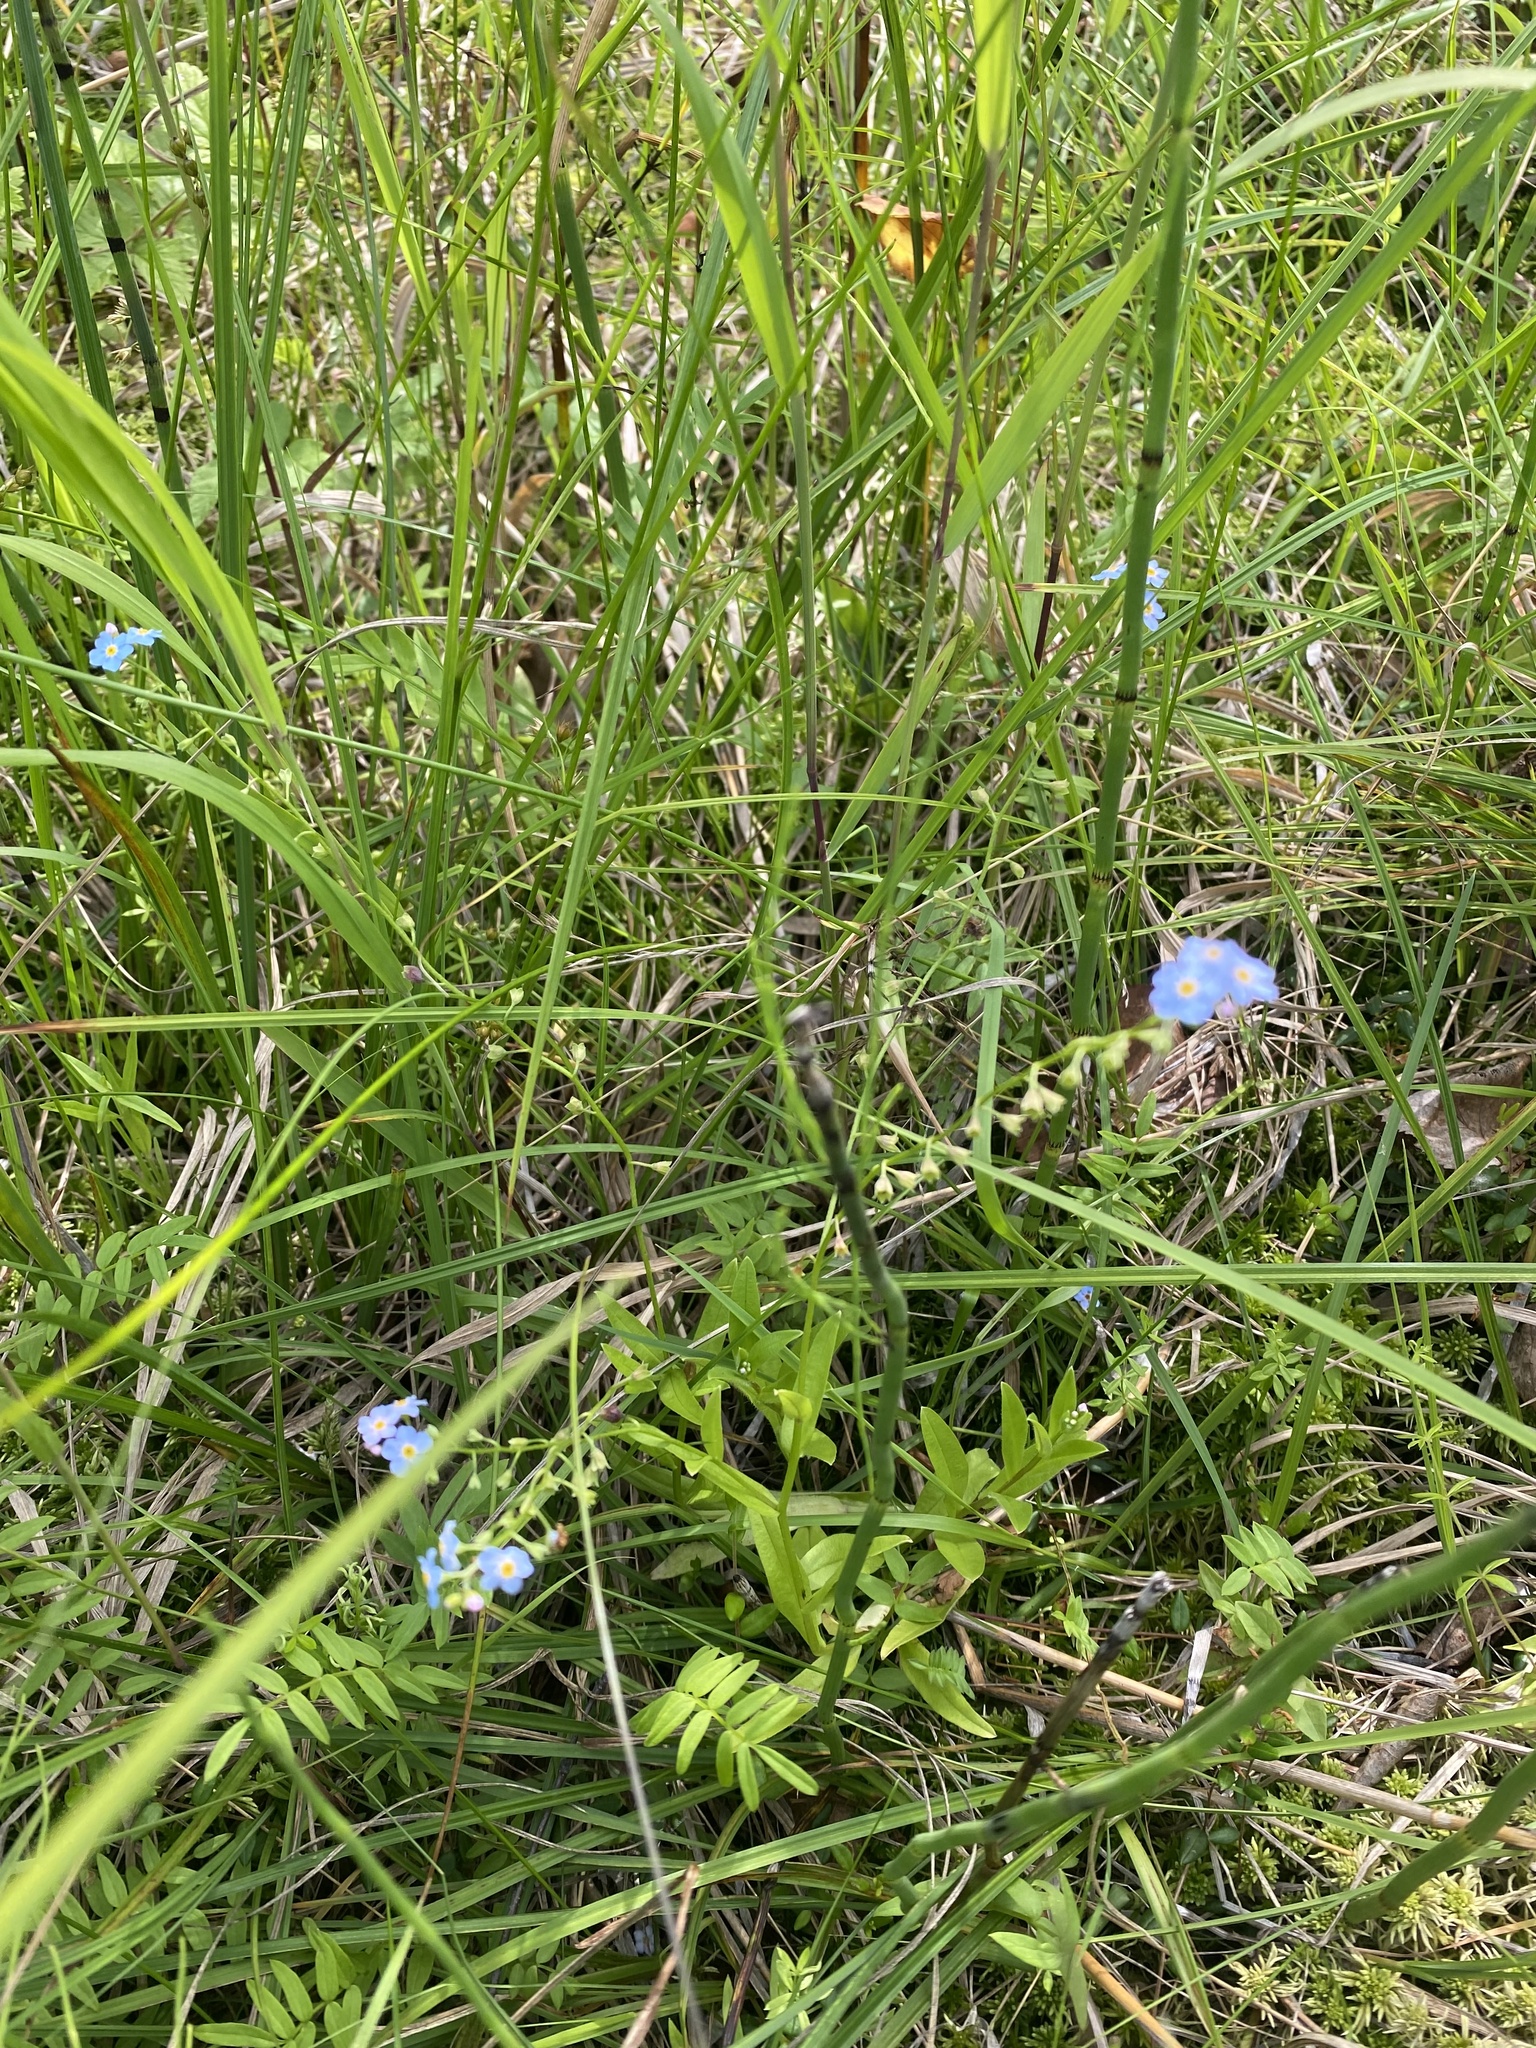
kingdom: Plantae
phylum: Tracheophyta
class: Magnoliopsida
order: Boraginales
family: Boraginaceae
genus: Myosotis
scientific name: Myosotis scorpioides
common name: Water forget-me-not
